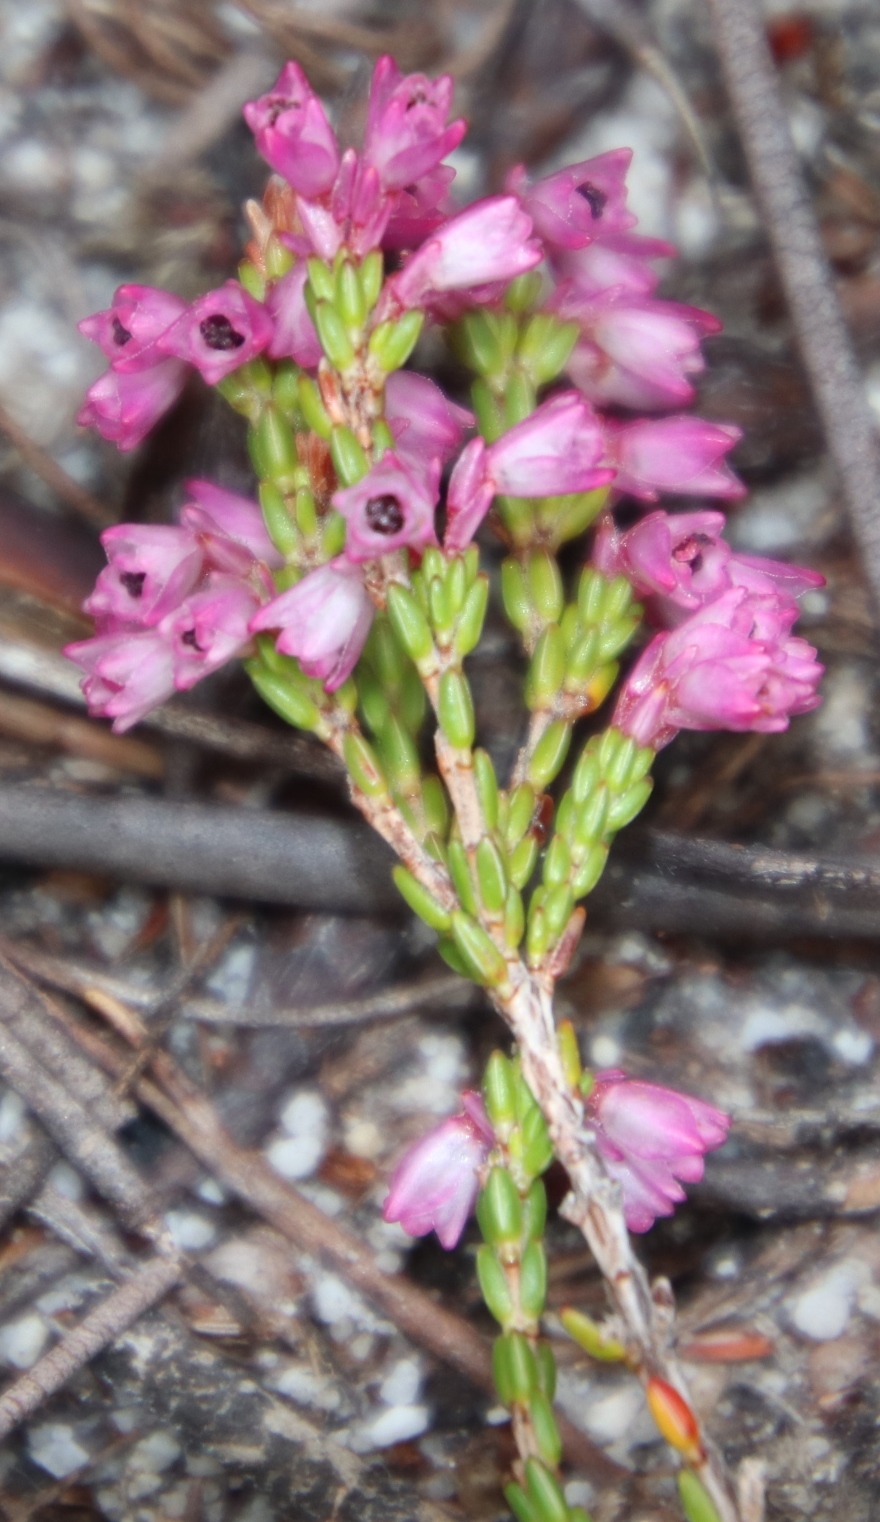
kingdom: Plantae
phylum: Tracheophyta
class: Magnoliopsida
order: Ericales
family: Ericaceae
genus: Erica
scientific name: Erica gnaphaloides
